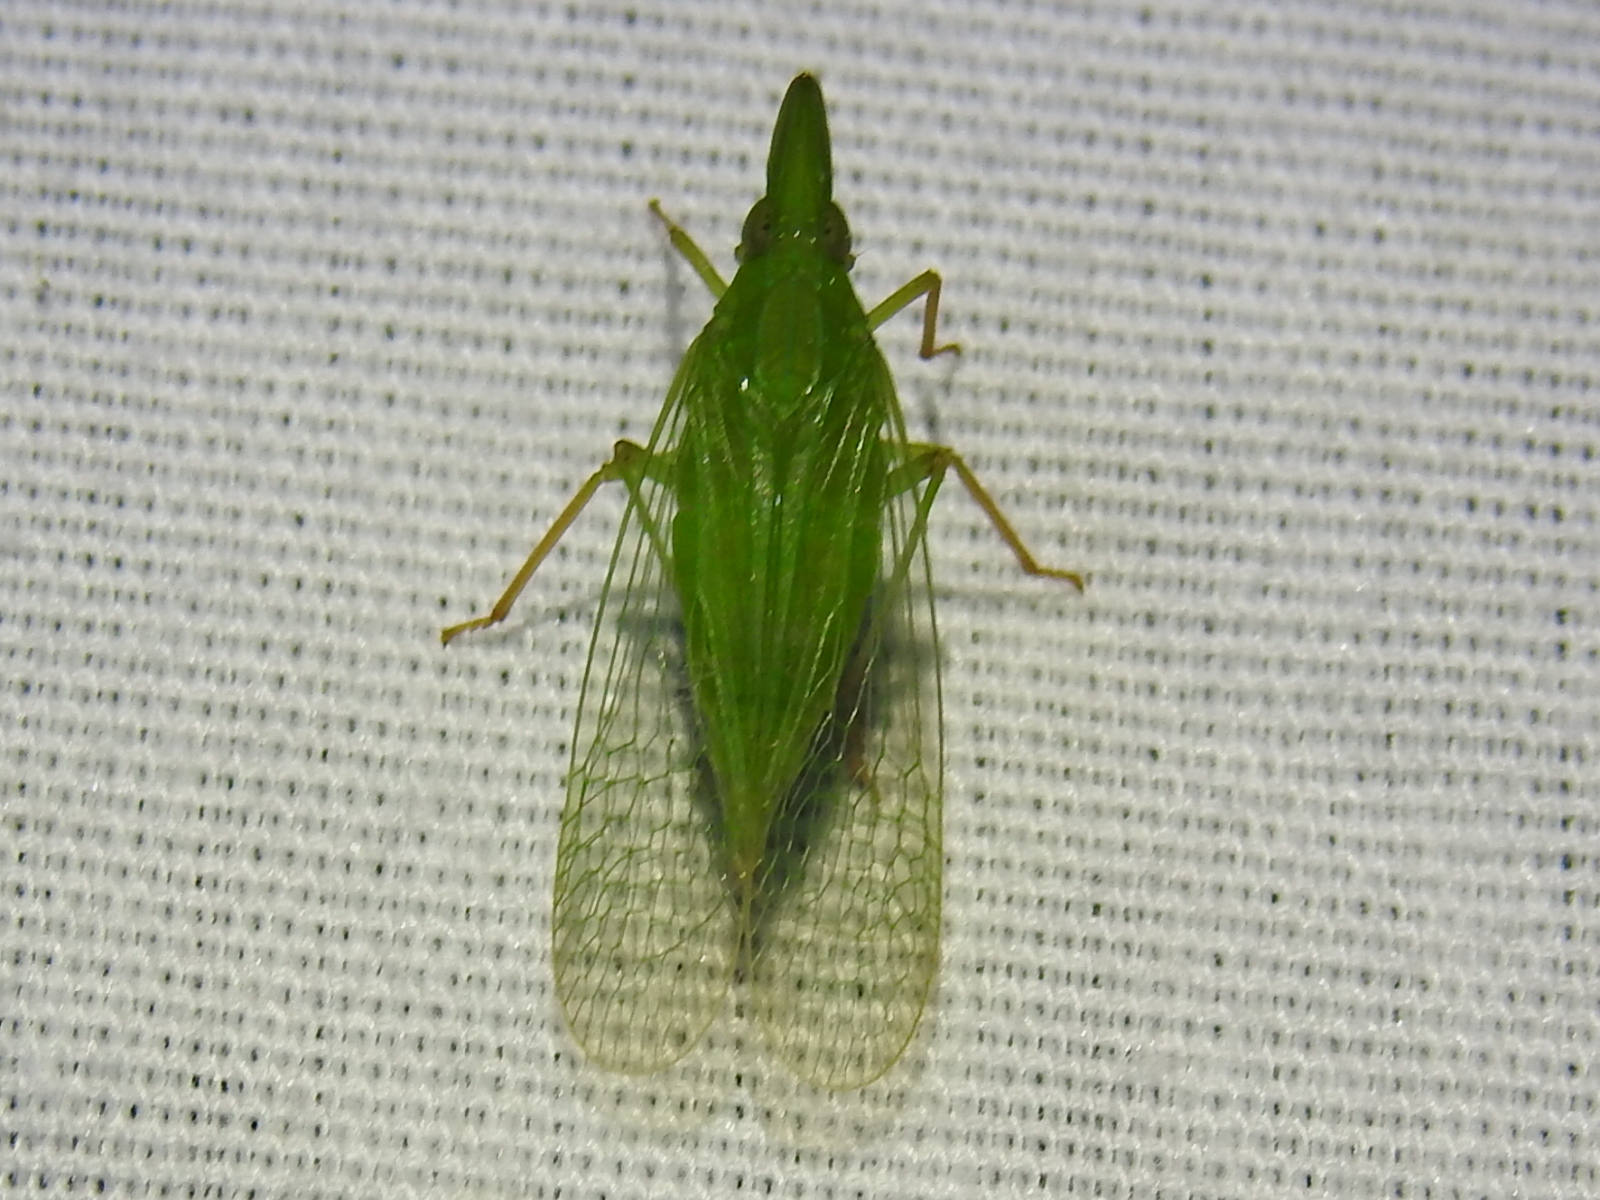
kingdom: Animalia
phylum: Arthropoda
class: Insecta
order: Hemiptera
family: Dictyopharidae
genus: Rhynchomitra
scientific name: Rhynchomitra microrhina
